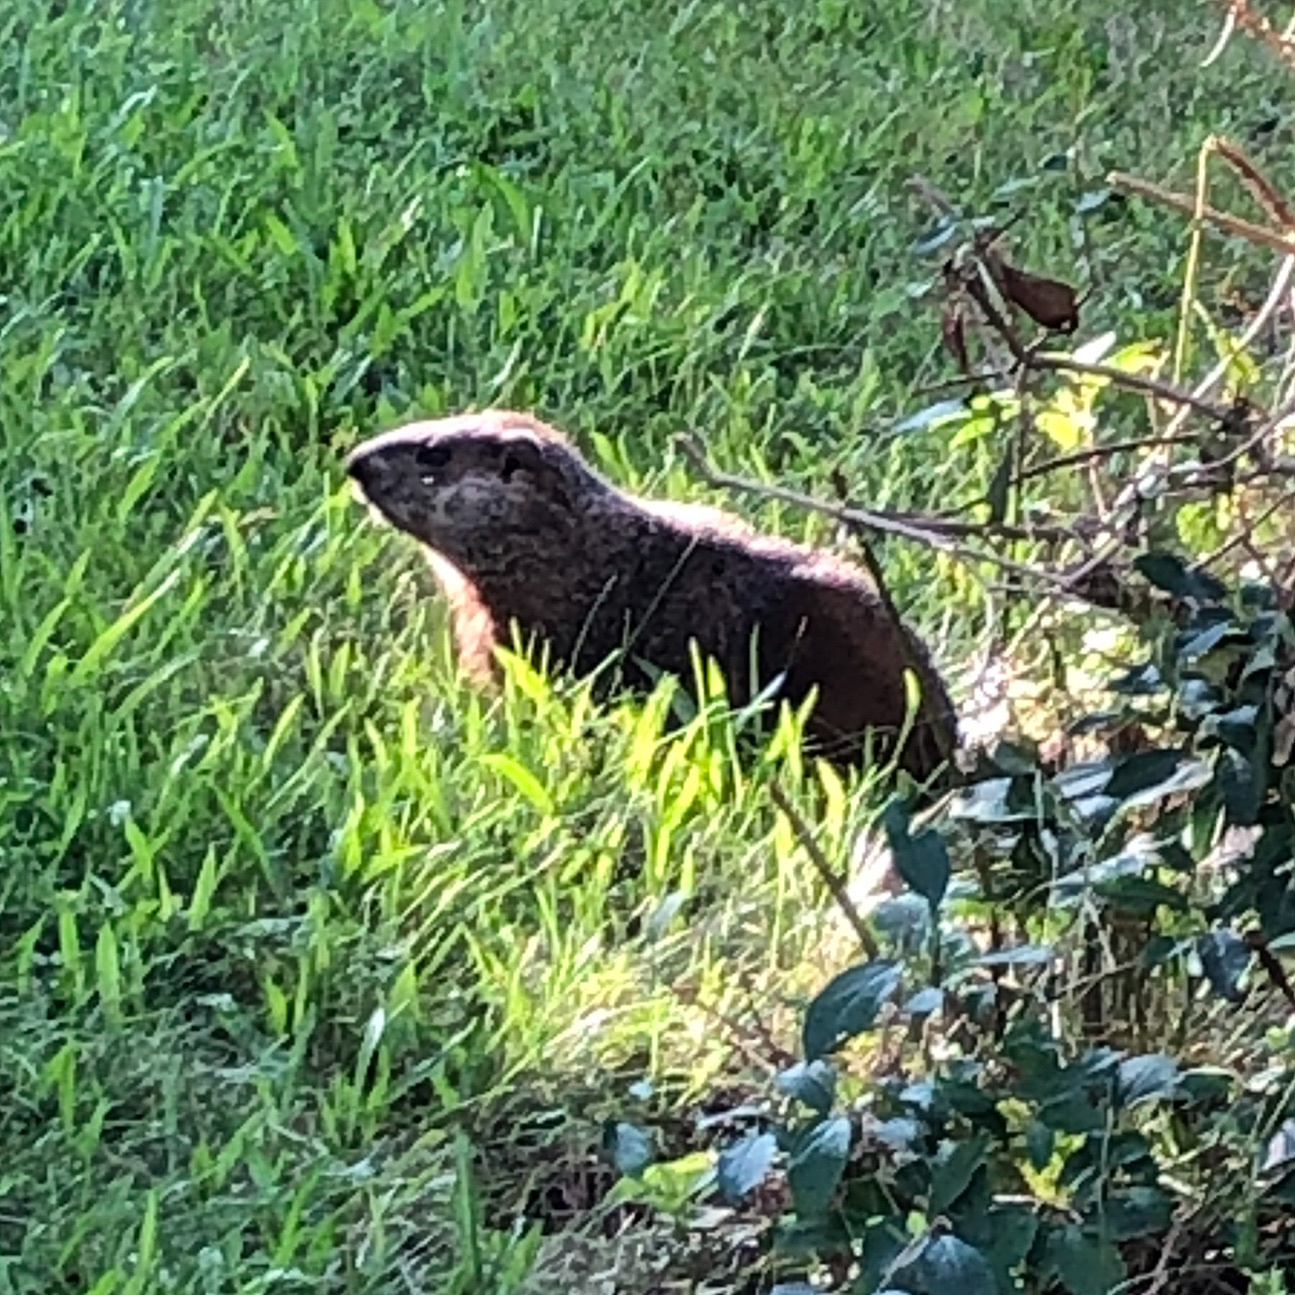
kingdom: Animalia
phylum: Chordata
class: Mammalia
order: Rodentia
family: Sciuridae
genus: Marmota
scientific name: Marmota monax
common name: Groundhog
